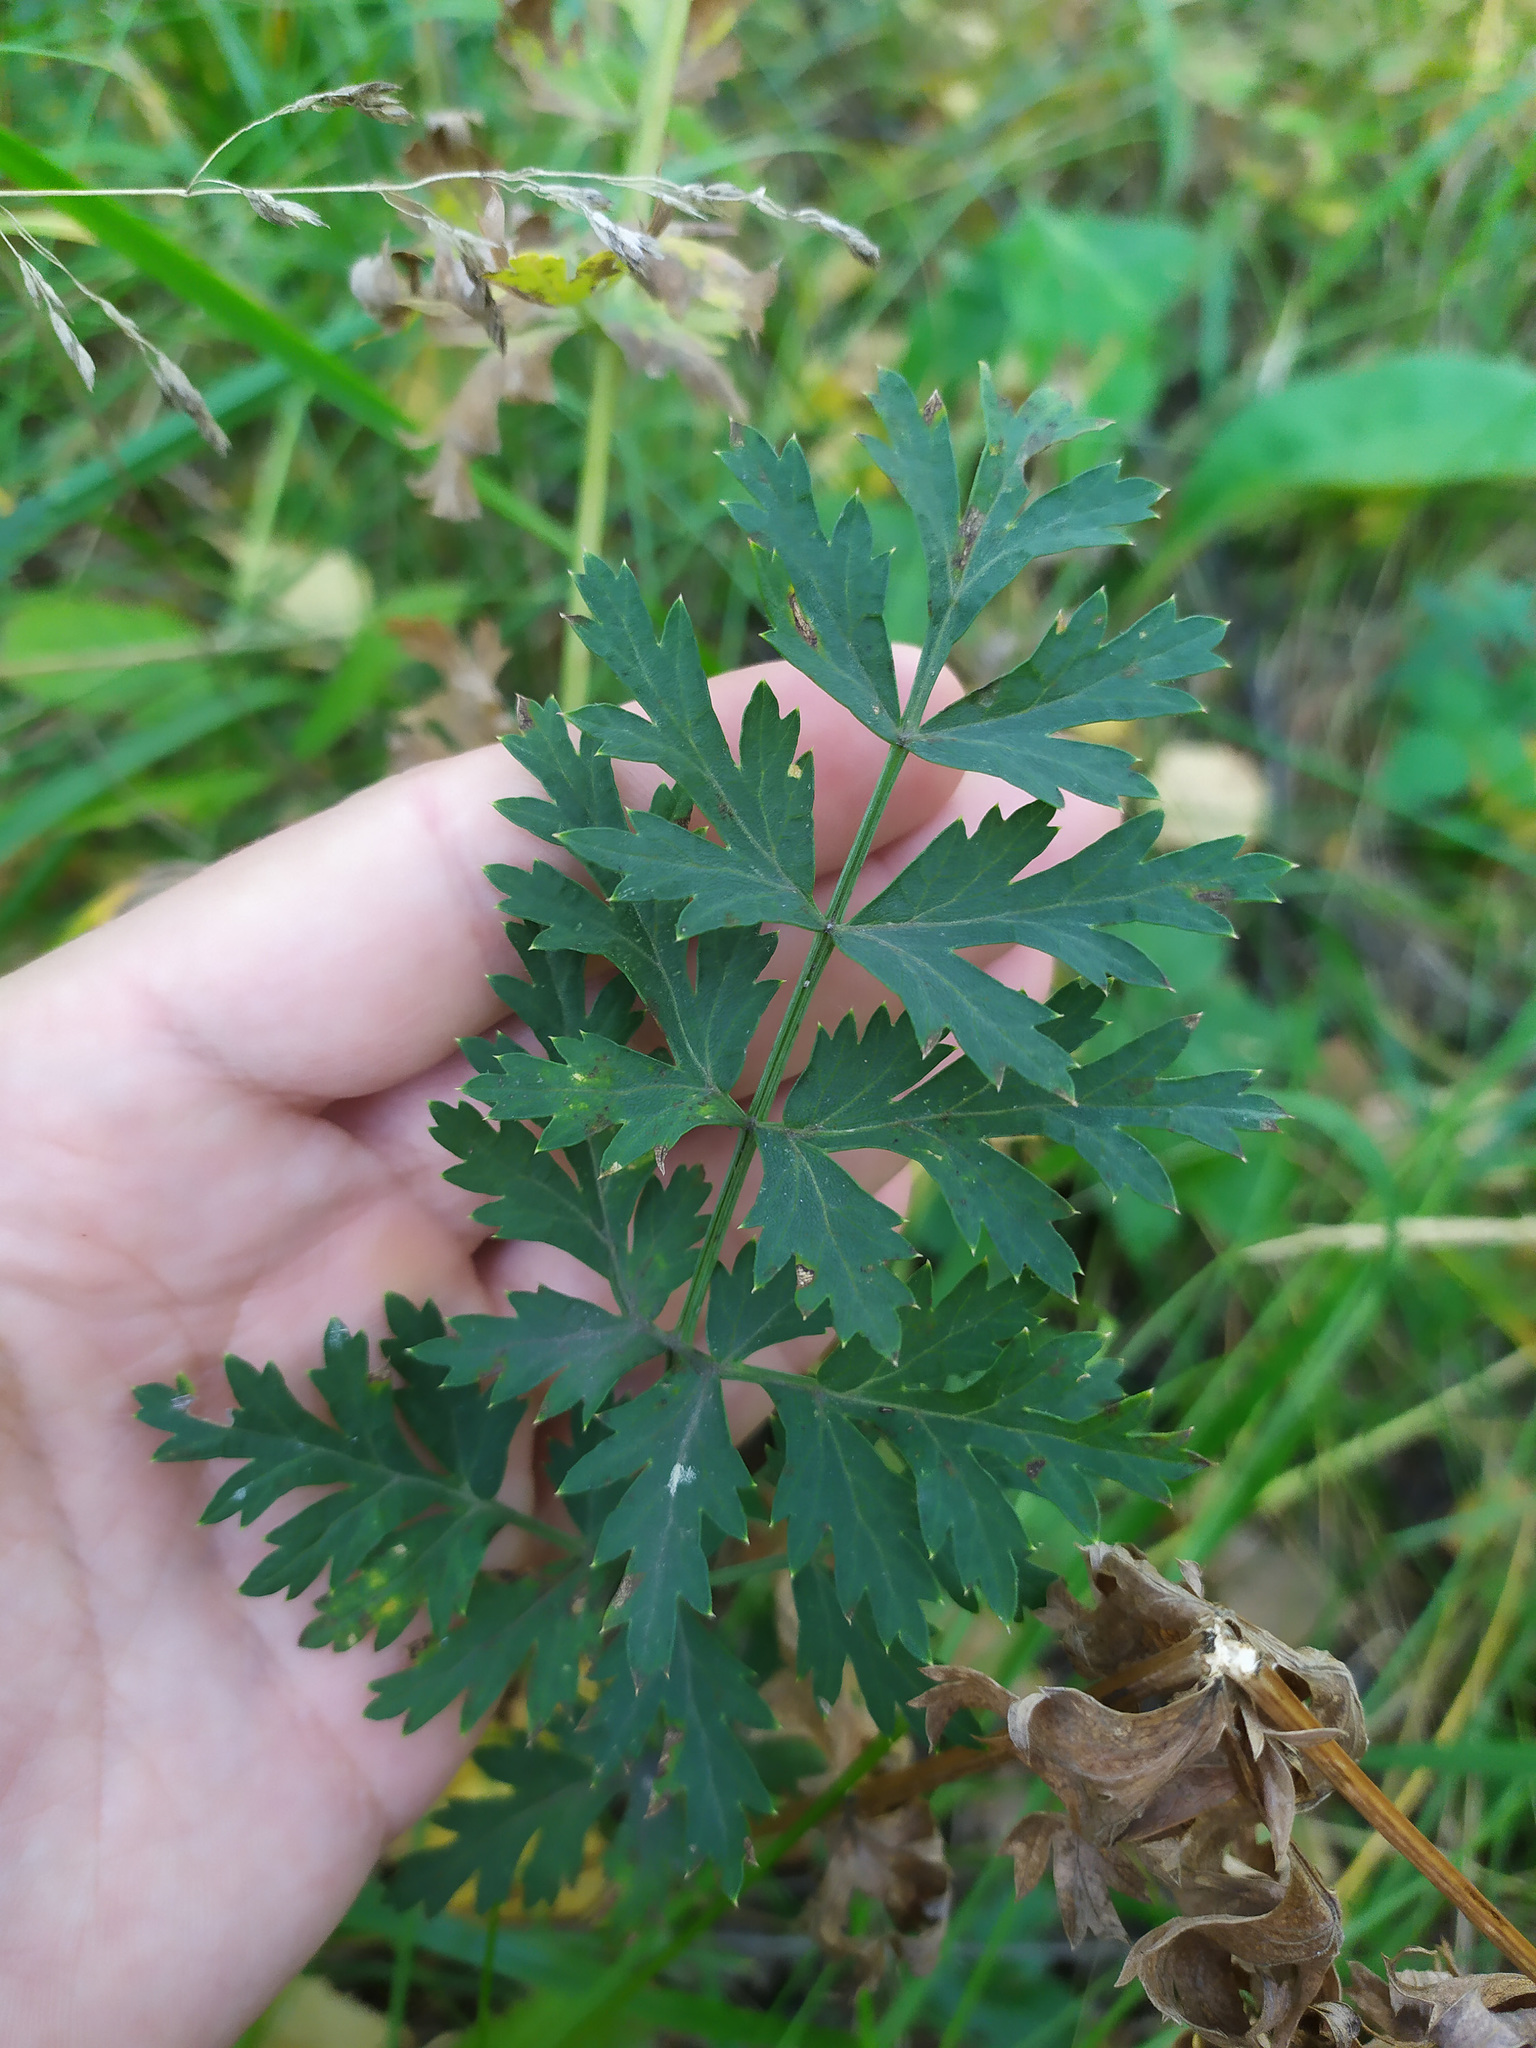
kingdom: Plantae
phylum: Tracheophyta
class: Magnoliopsida
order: Apiales
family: Apiaceae
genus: Seseli
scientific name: Seseli libanotis
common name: Mooncarrot
